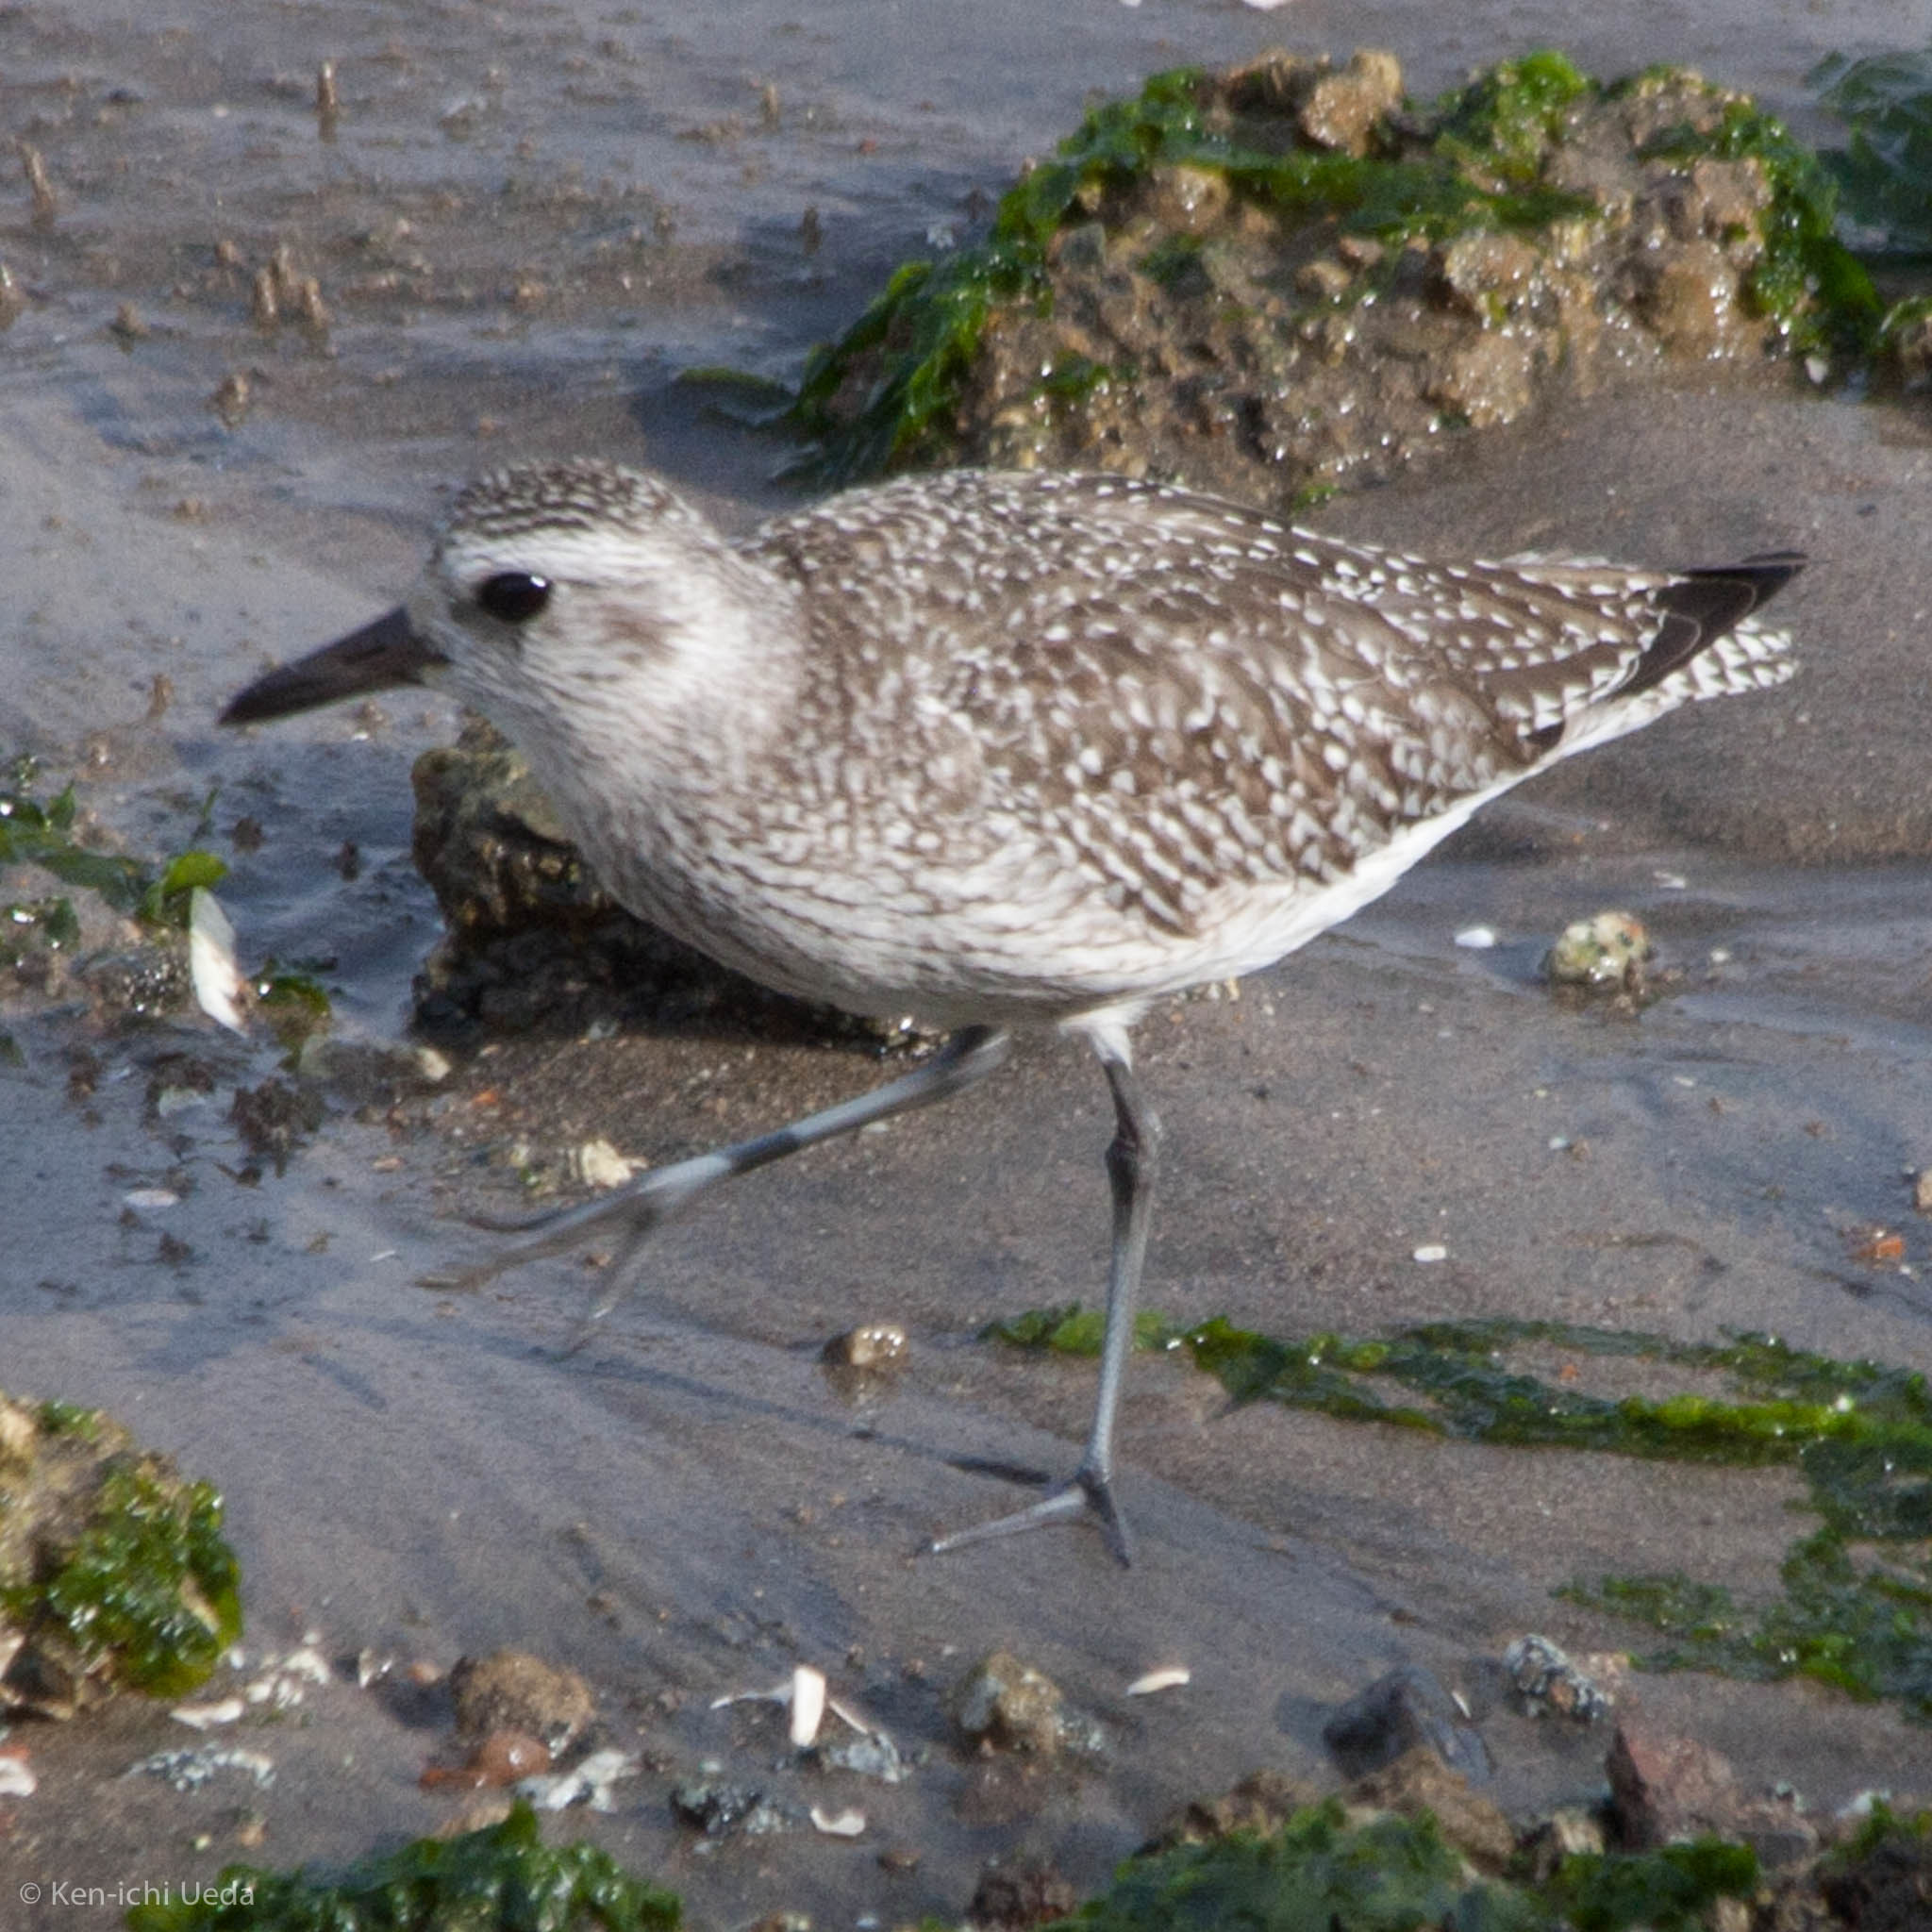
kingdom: Animalia
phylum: Chordata
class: Aves
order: Charadriiformes
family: Charadriidae
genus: Pluvialis
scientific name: Pluvialis squatarola
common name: Grey plover
